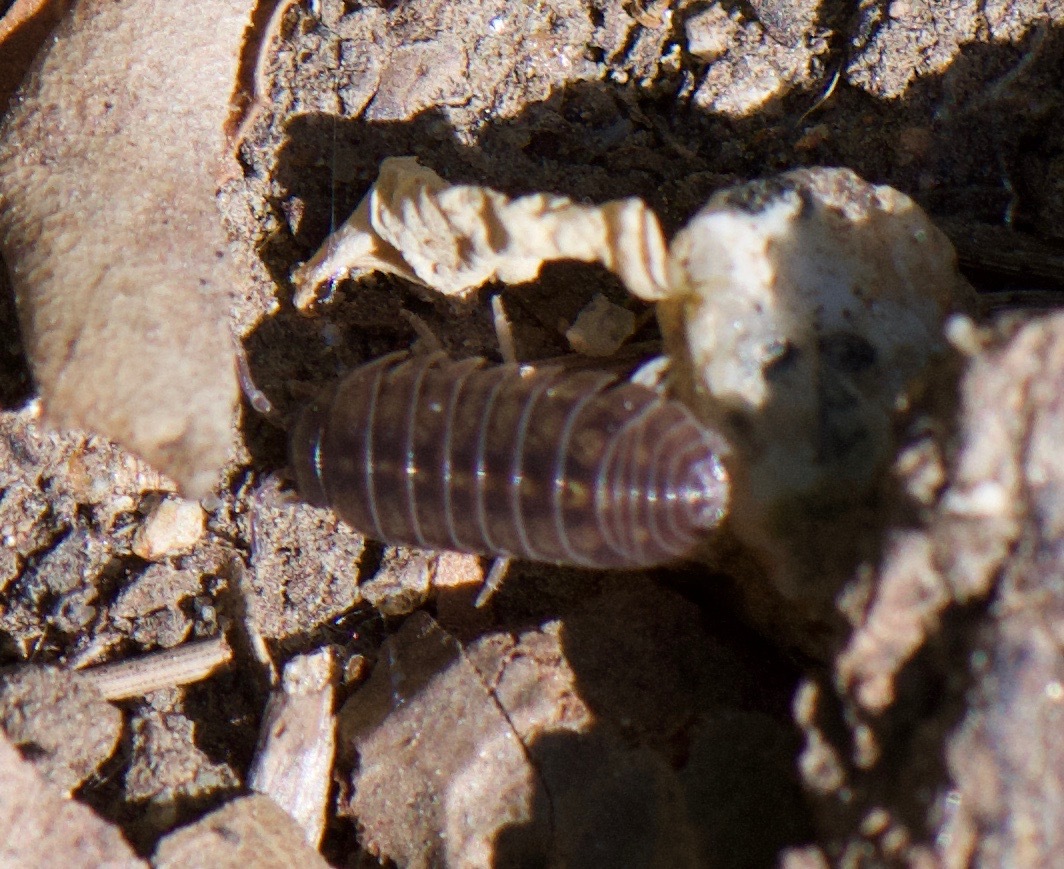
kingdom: Animalia
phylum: Arthropoda
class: Malacostraca
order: Isopoda
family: Armadillidiidae
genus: Armadillidium
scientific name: Armadillidium vulgare
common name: Common pill woodlouse
